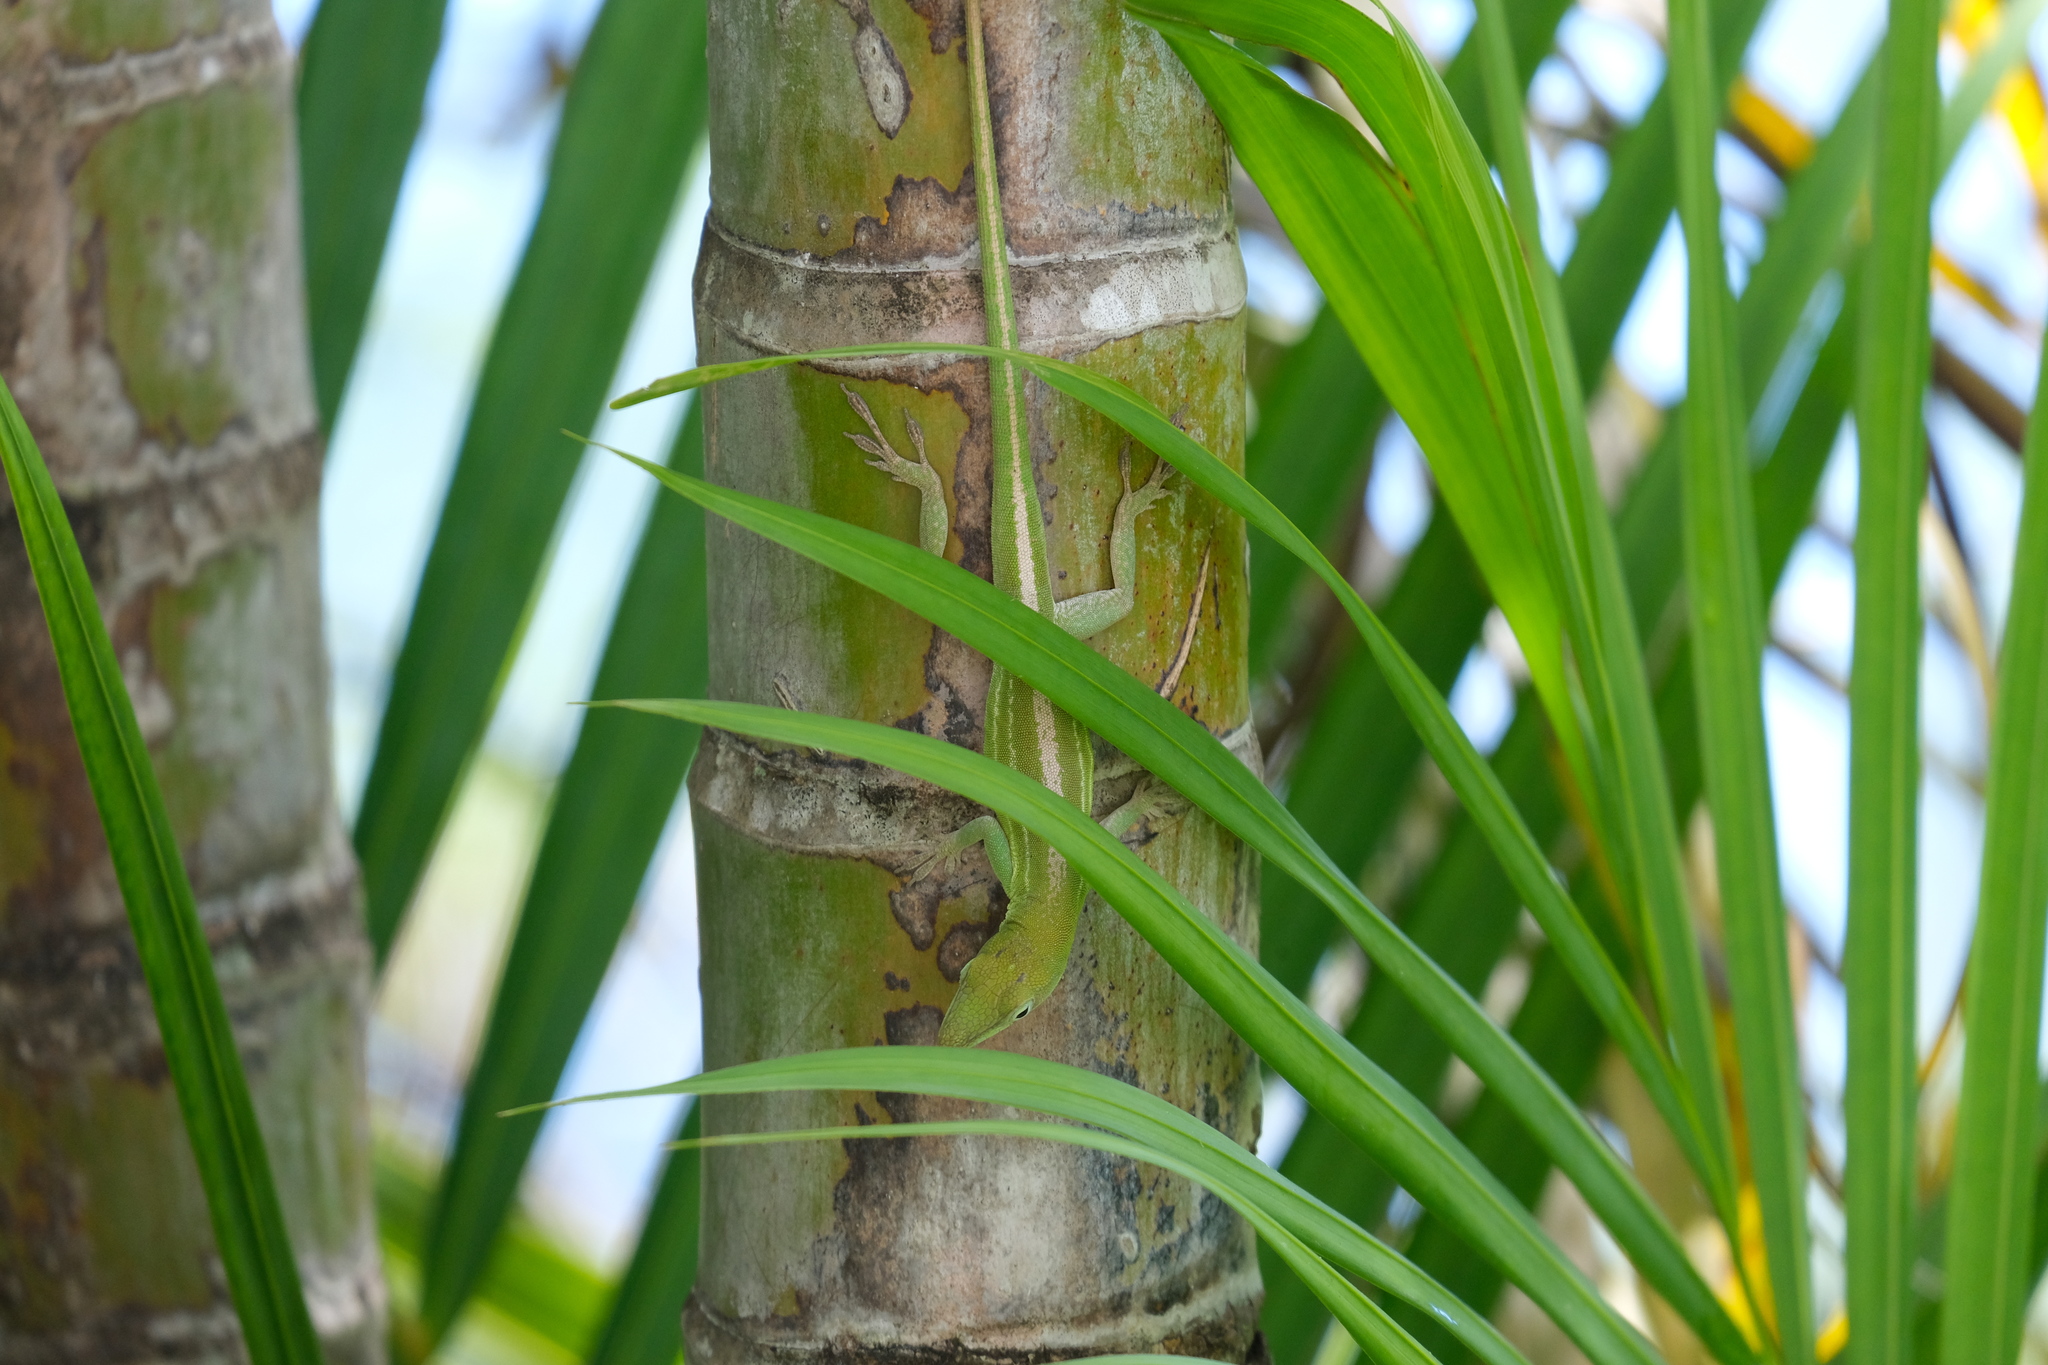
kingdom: Animalia
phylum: Chordata
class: Squamata
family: Dactyloidae
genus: Anolis
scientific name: Anolis chlorocyanus
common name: Hispaniolan green anole
